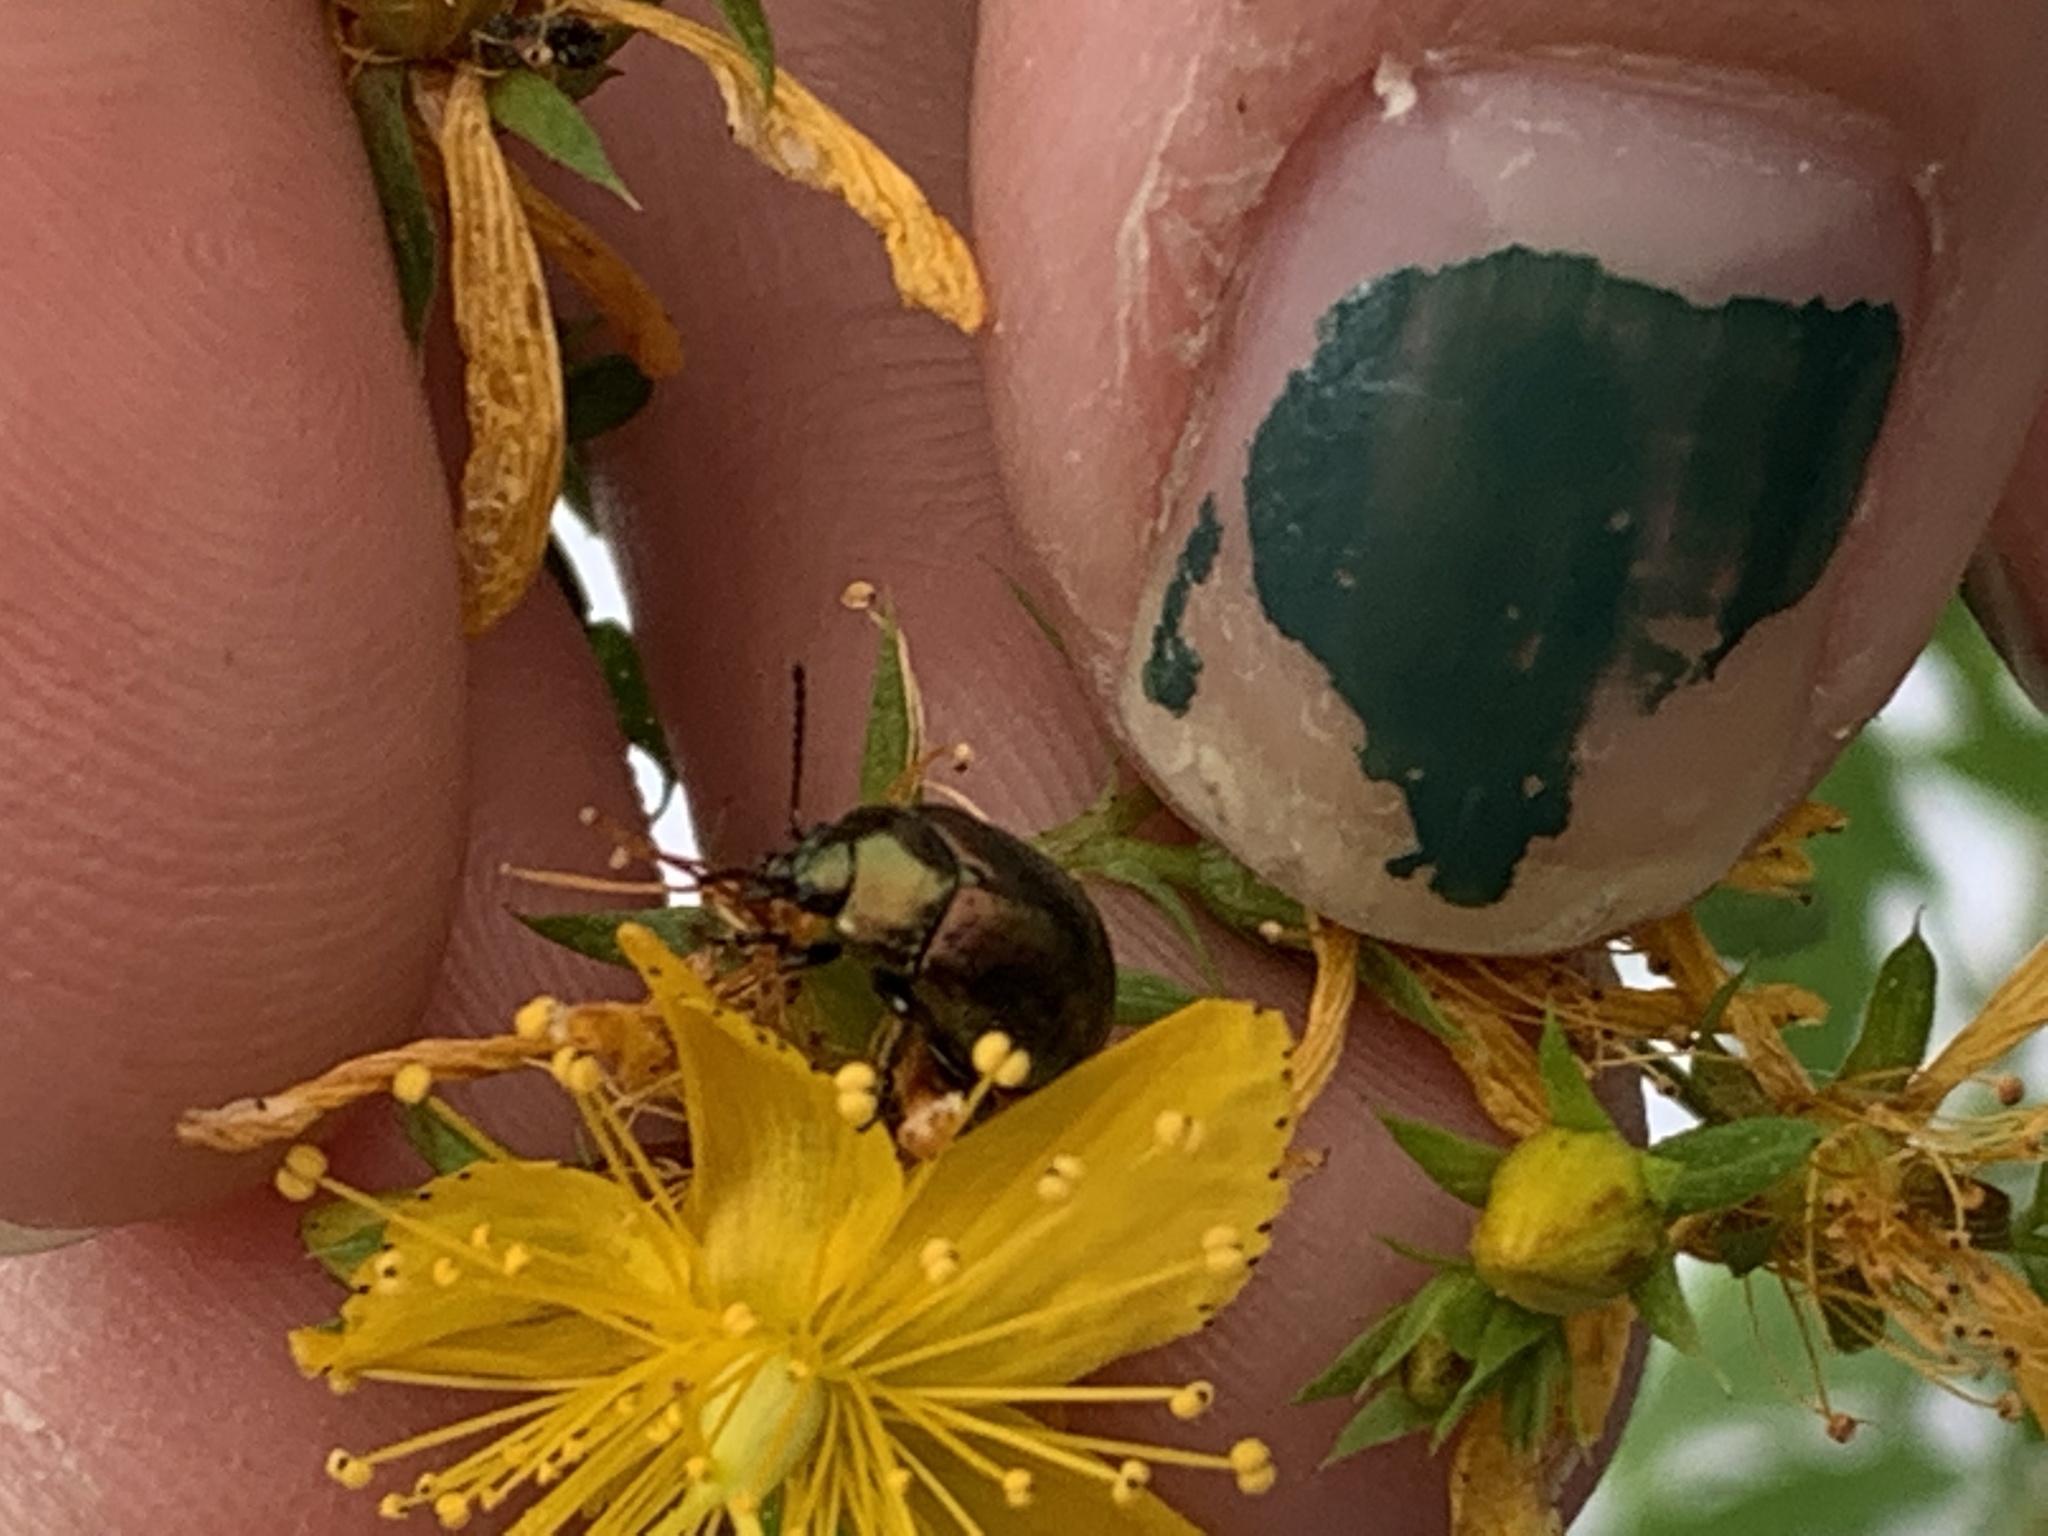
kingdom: Animalia
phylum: Arthropoda
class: Insecta
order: Coleoptera
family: Chrysomelidae
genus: Chrysolina
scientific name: Chrysolina hyperici
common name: St. johnswort beetle
